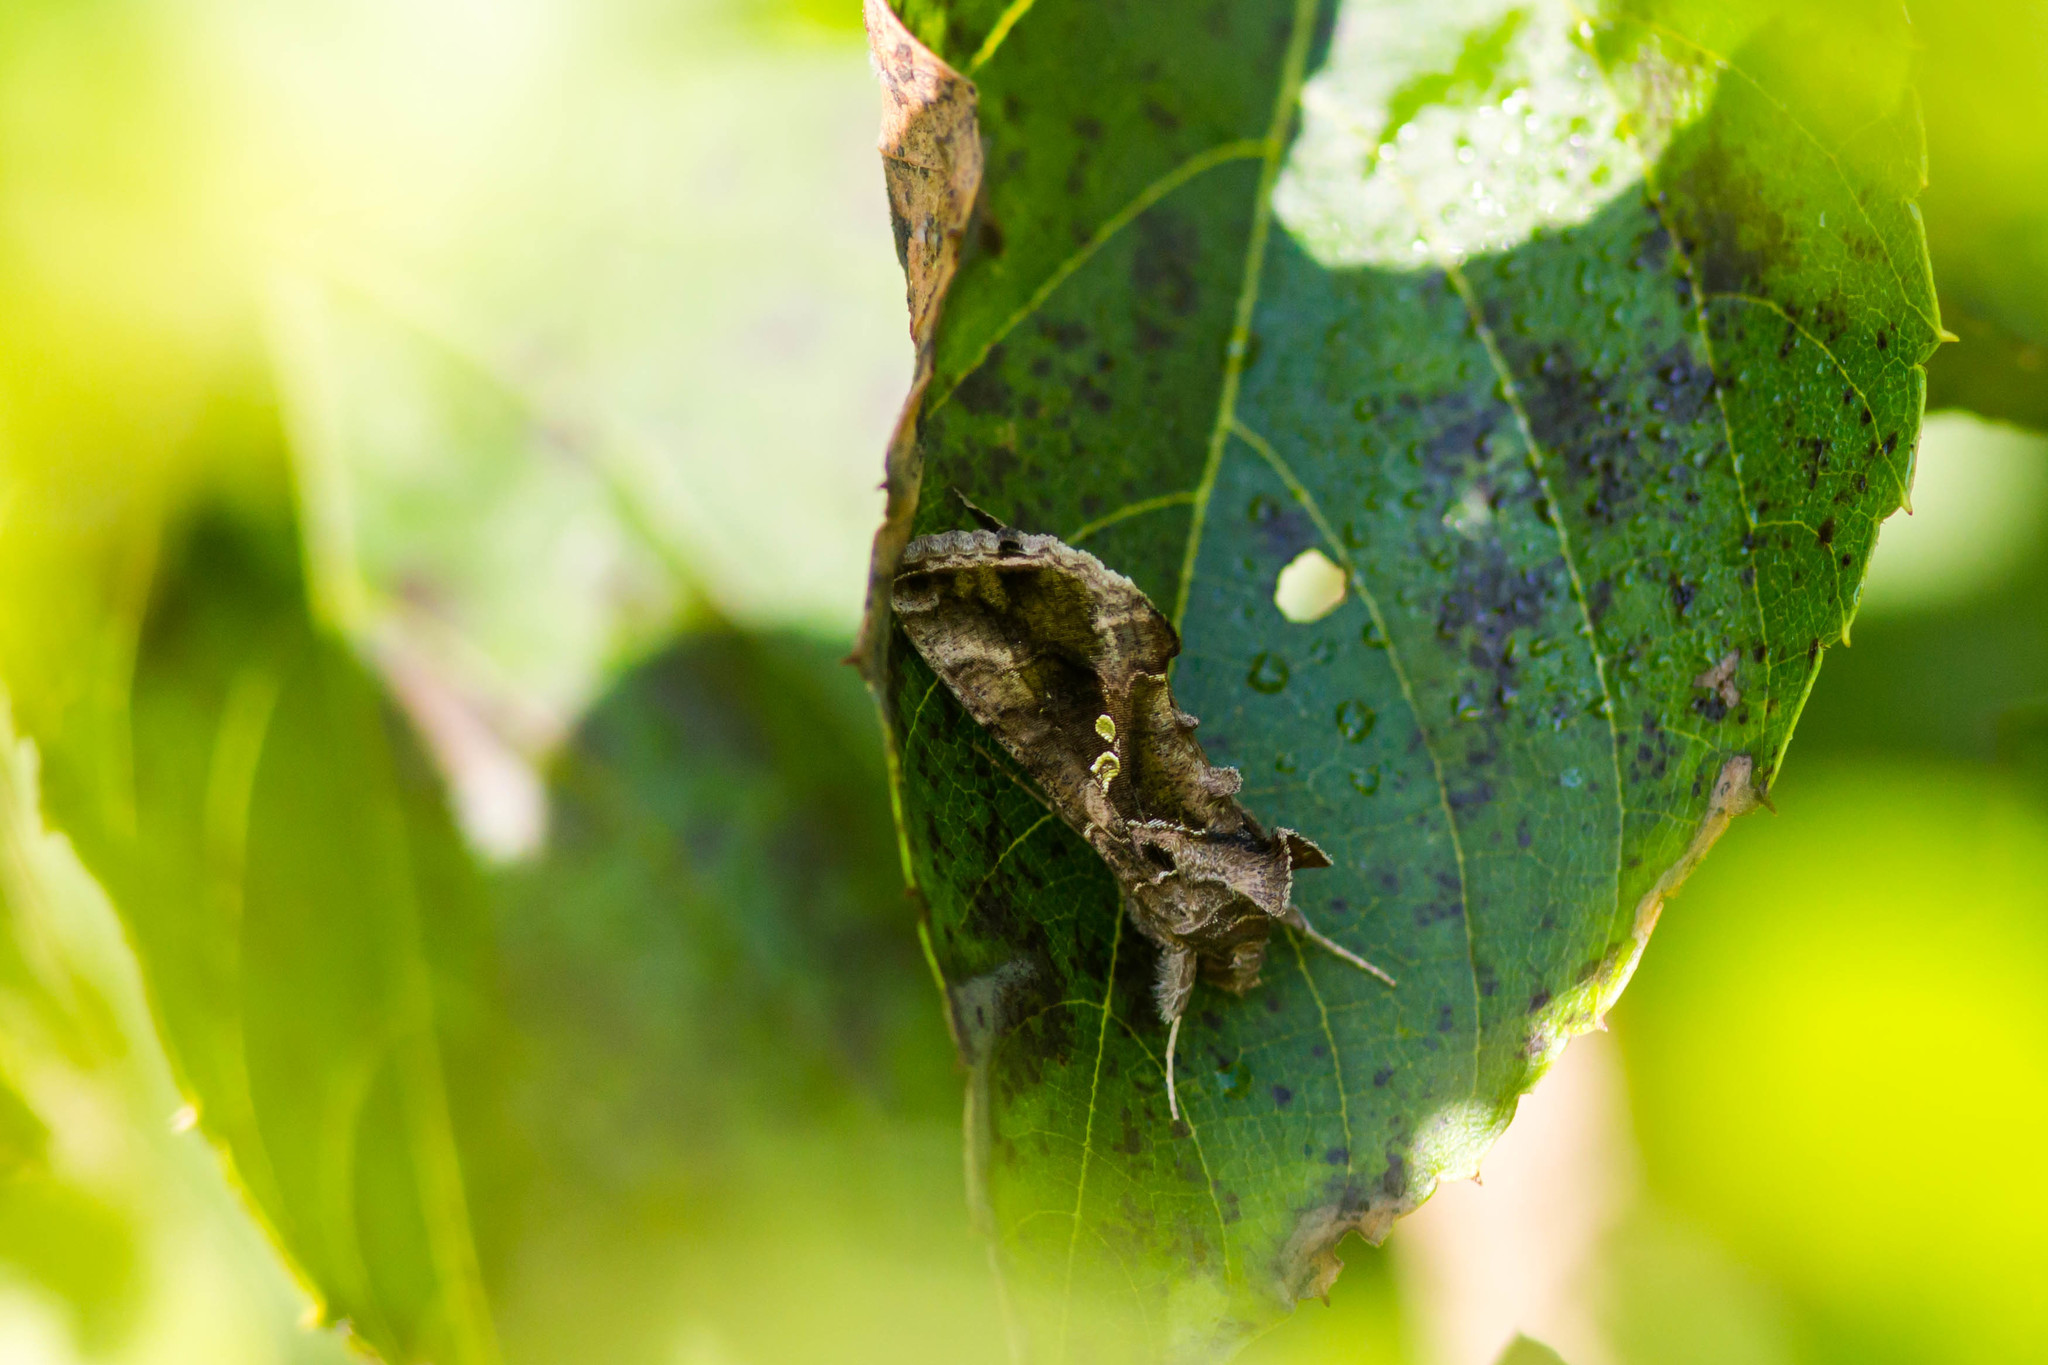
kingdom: Animalia
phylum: Arthropoda
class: Insecta
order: Lepidoptera
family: Noctuidae
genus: Chrysodeixis
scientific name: Chrysodeixis includens
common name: Cutworm moth
